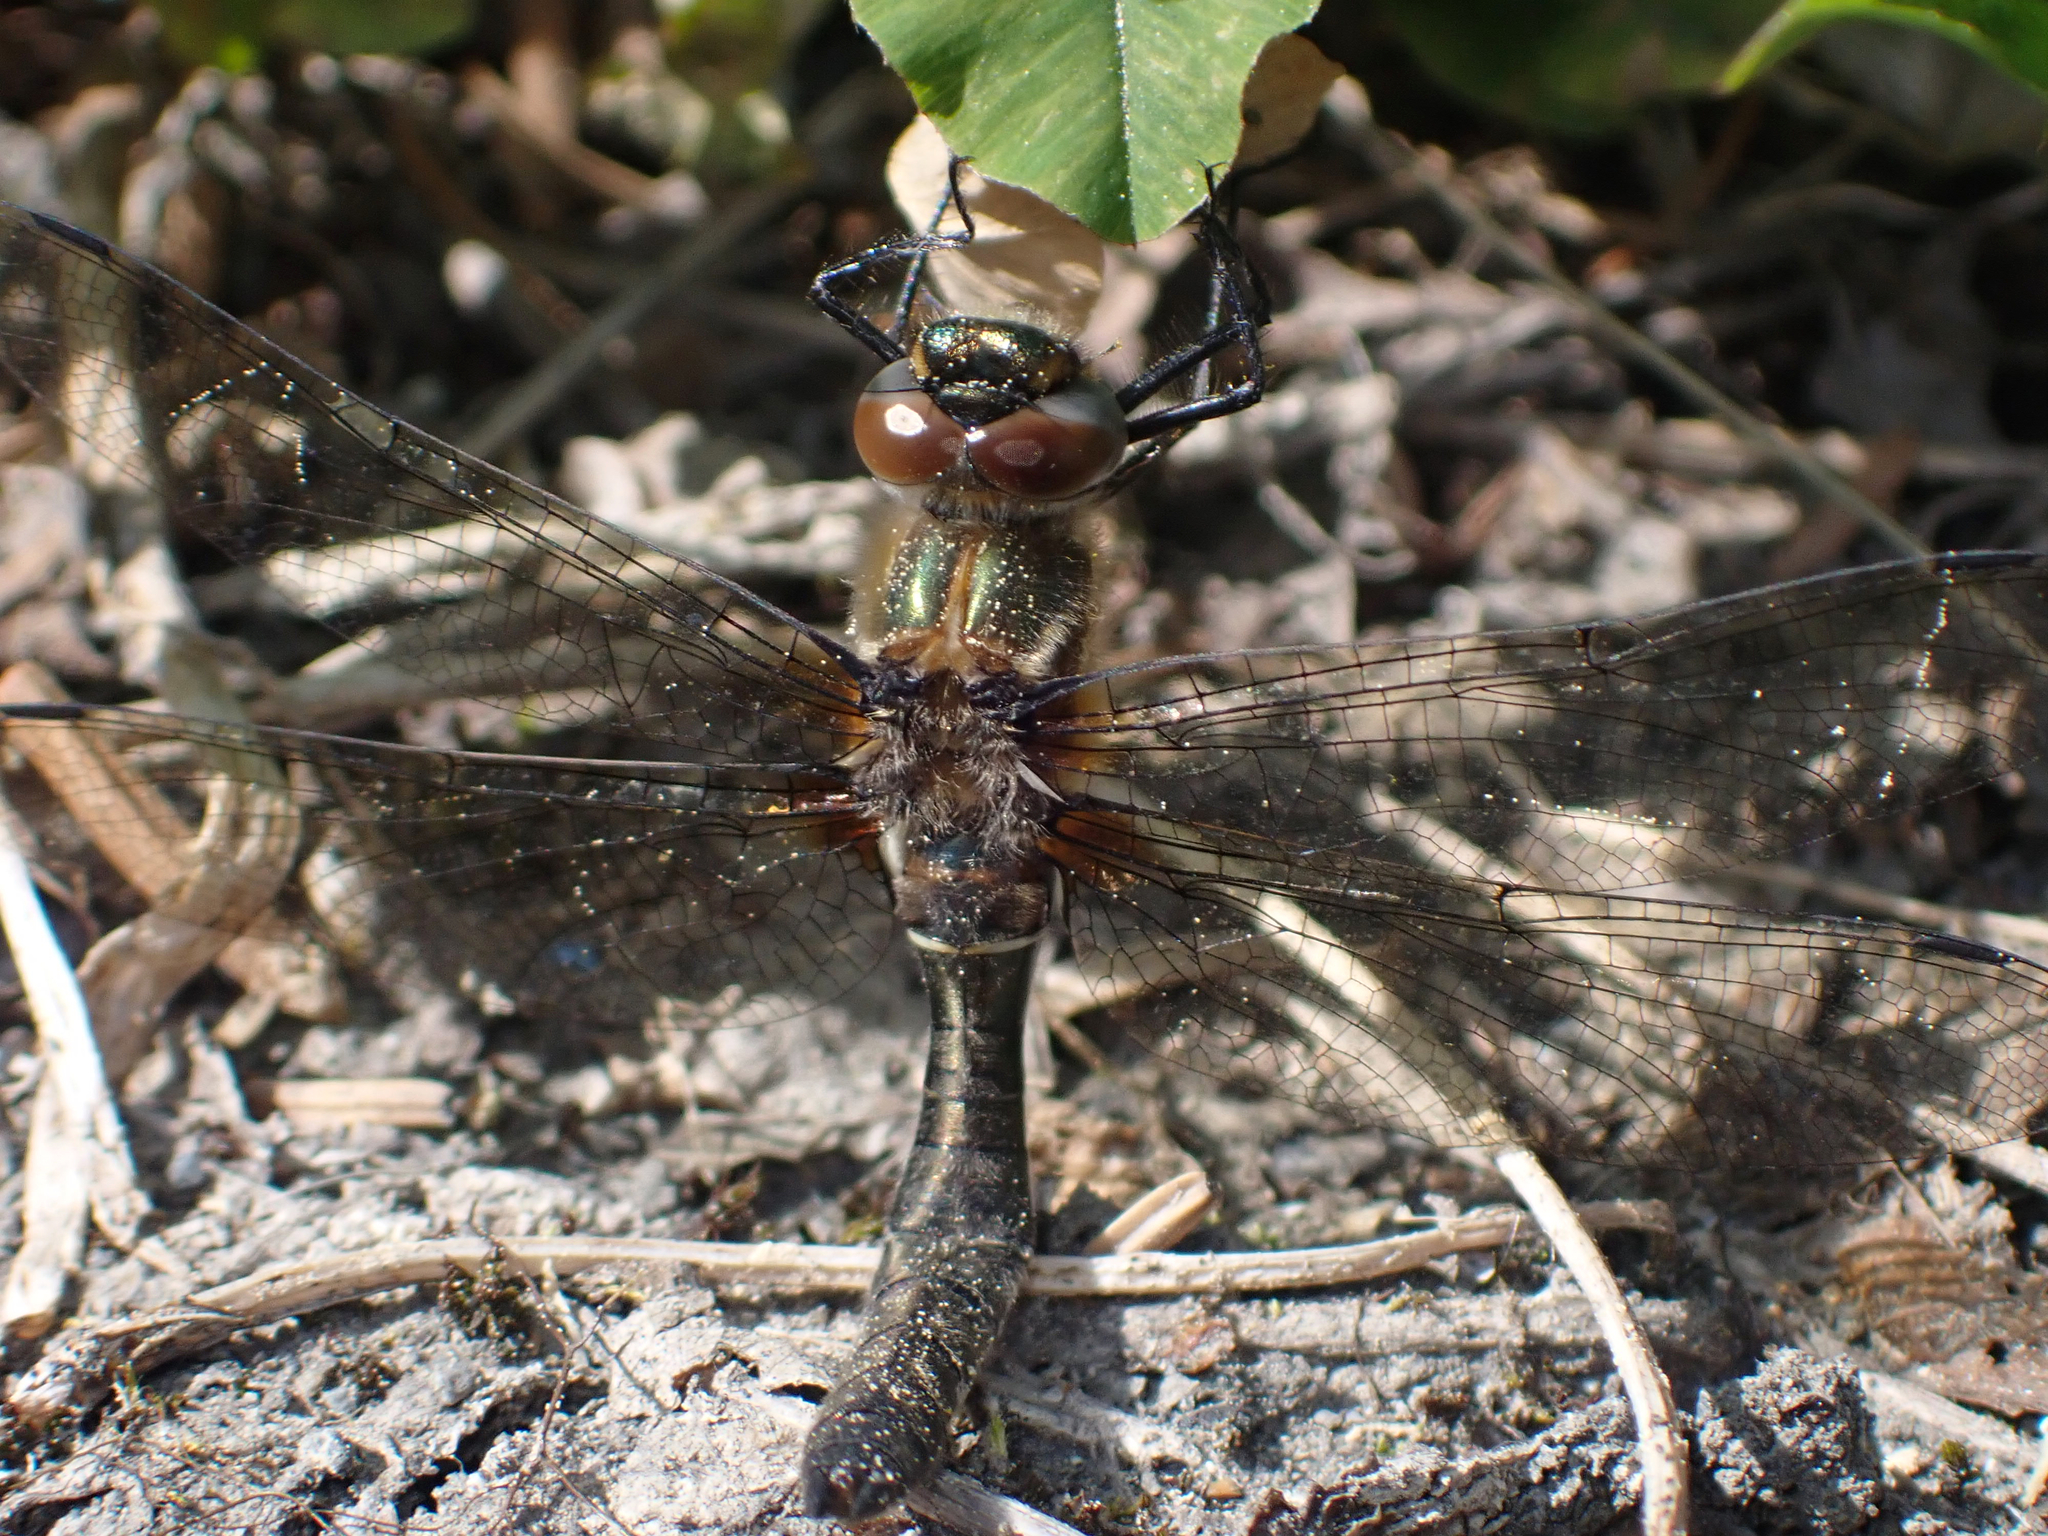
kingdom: Animalia
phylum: Arthropoda
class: Insecta
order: Odonata
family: Corduliidae
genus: Cordulia
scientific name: Cordulia shurtleffii
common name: American emerald
